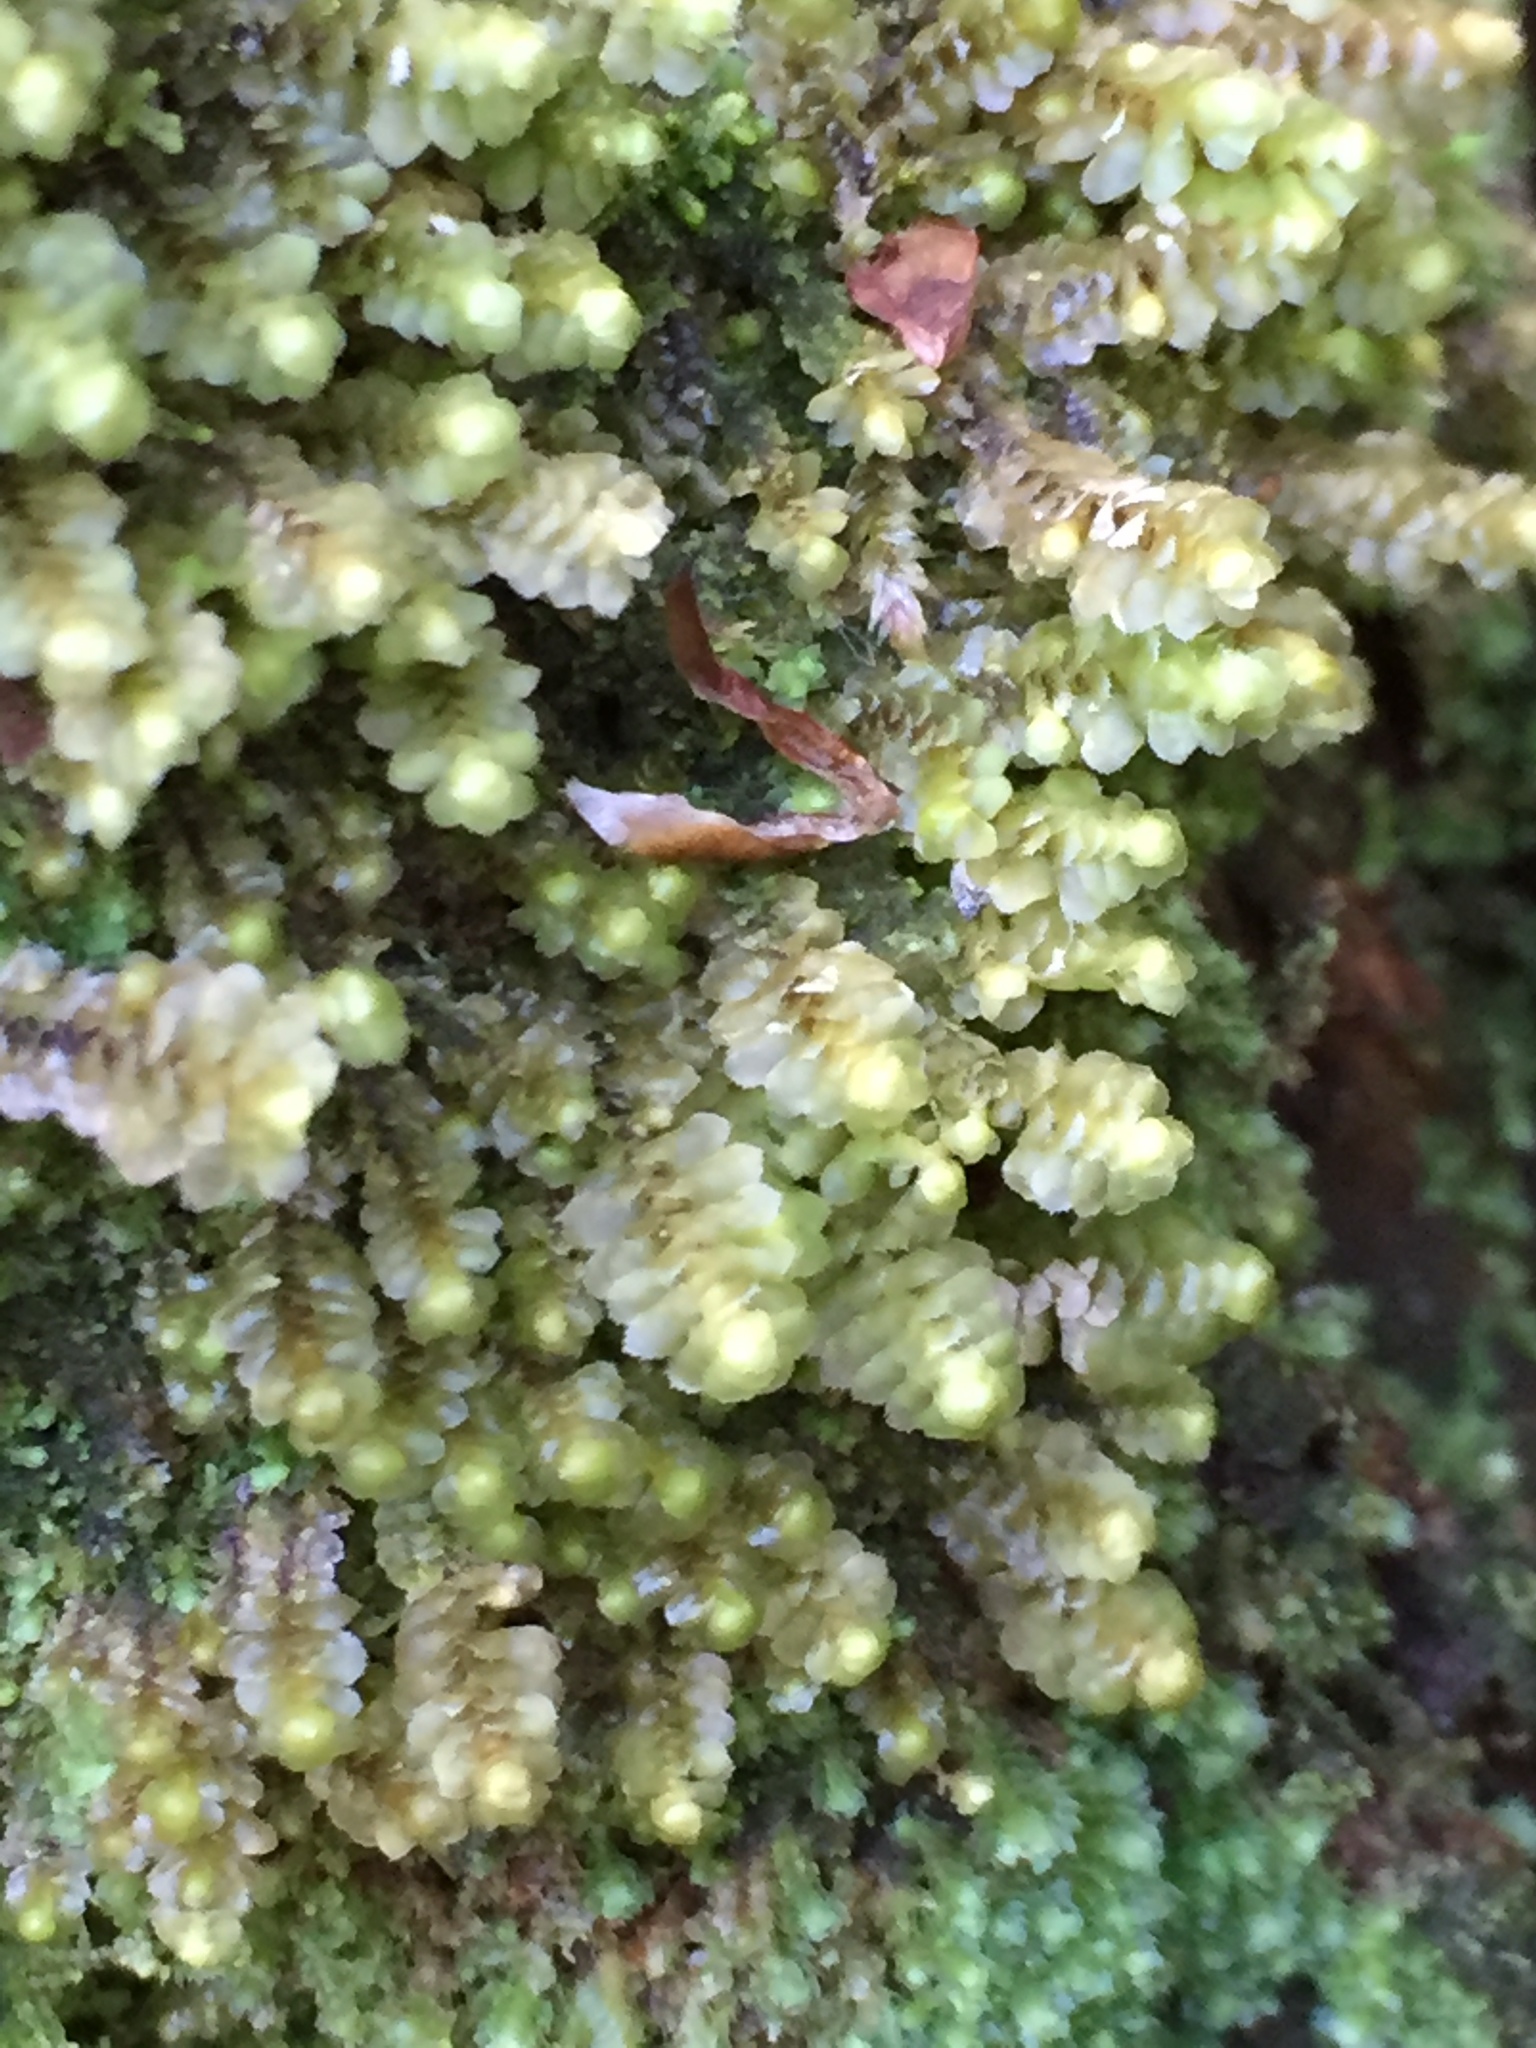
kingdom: Plantae
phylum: Marchantiophyta
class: Jungermanniopsida
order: Jungermanniales
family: Scapaniaceae
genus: Scapania
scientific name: Scapania bolanderi
